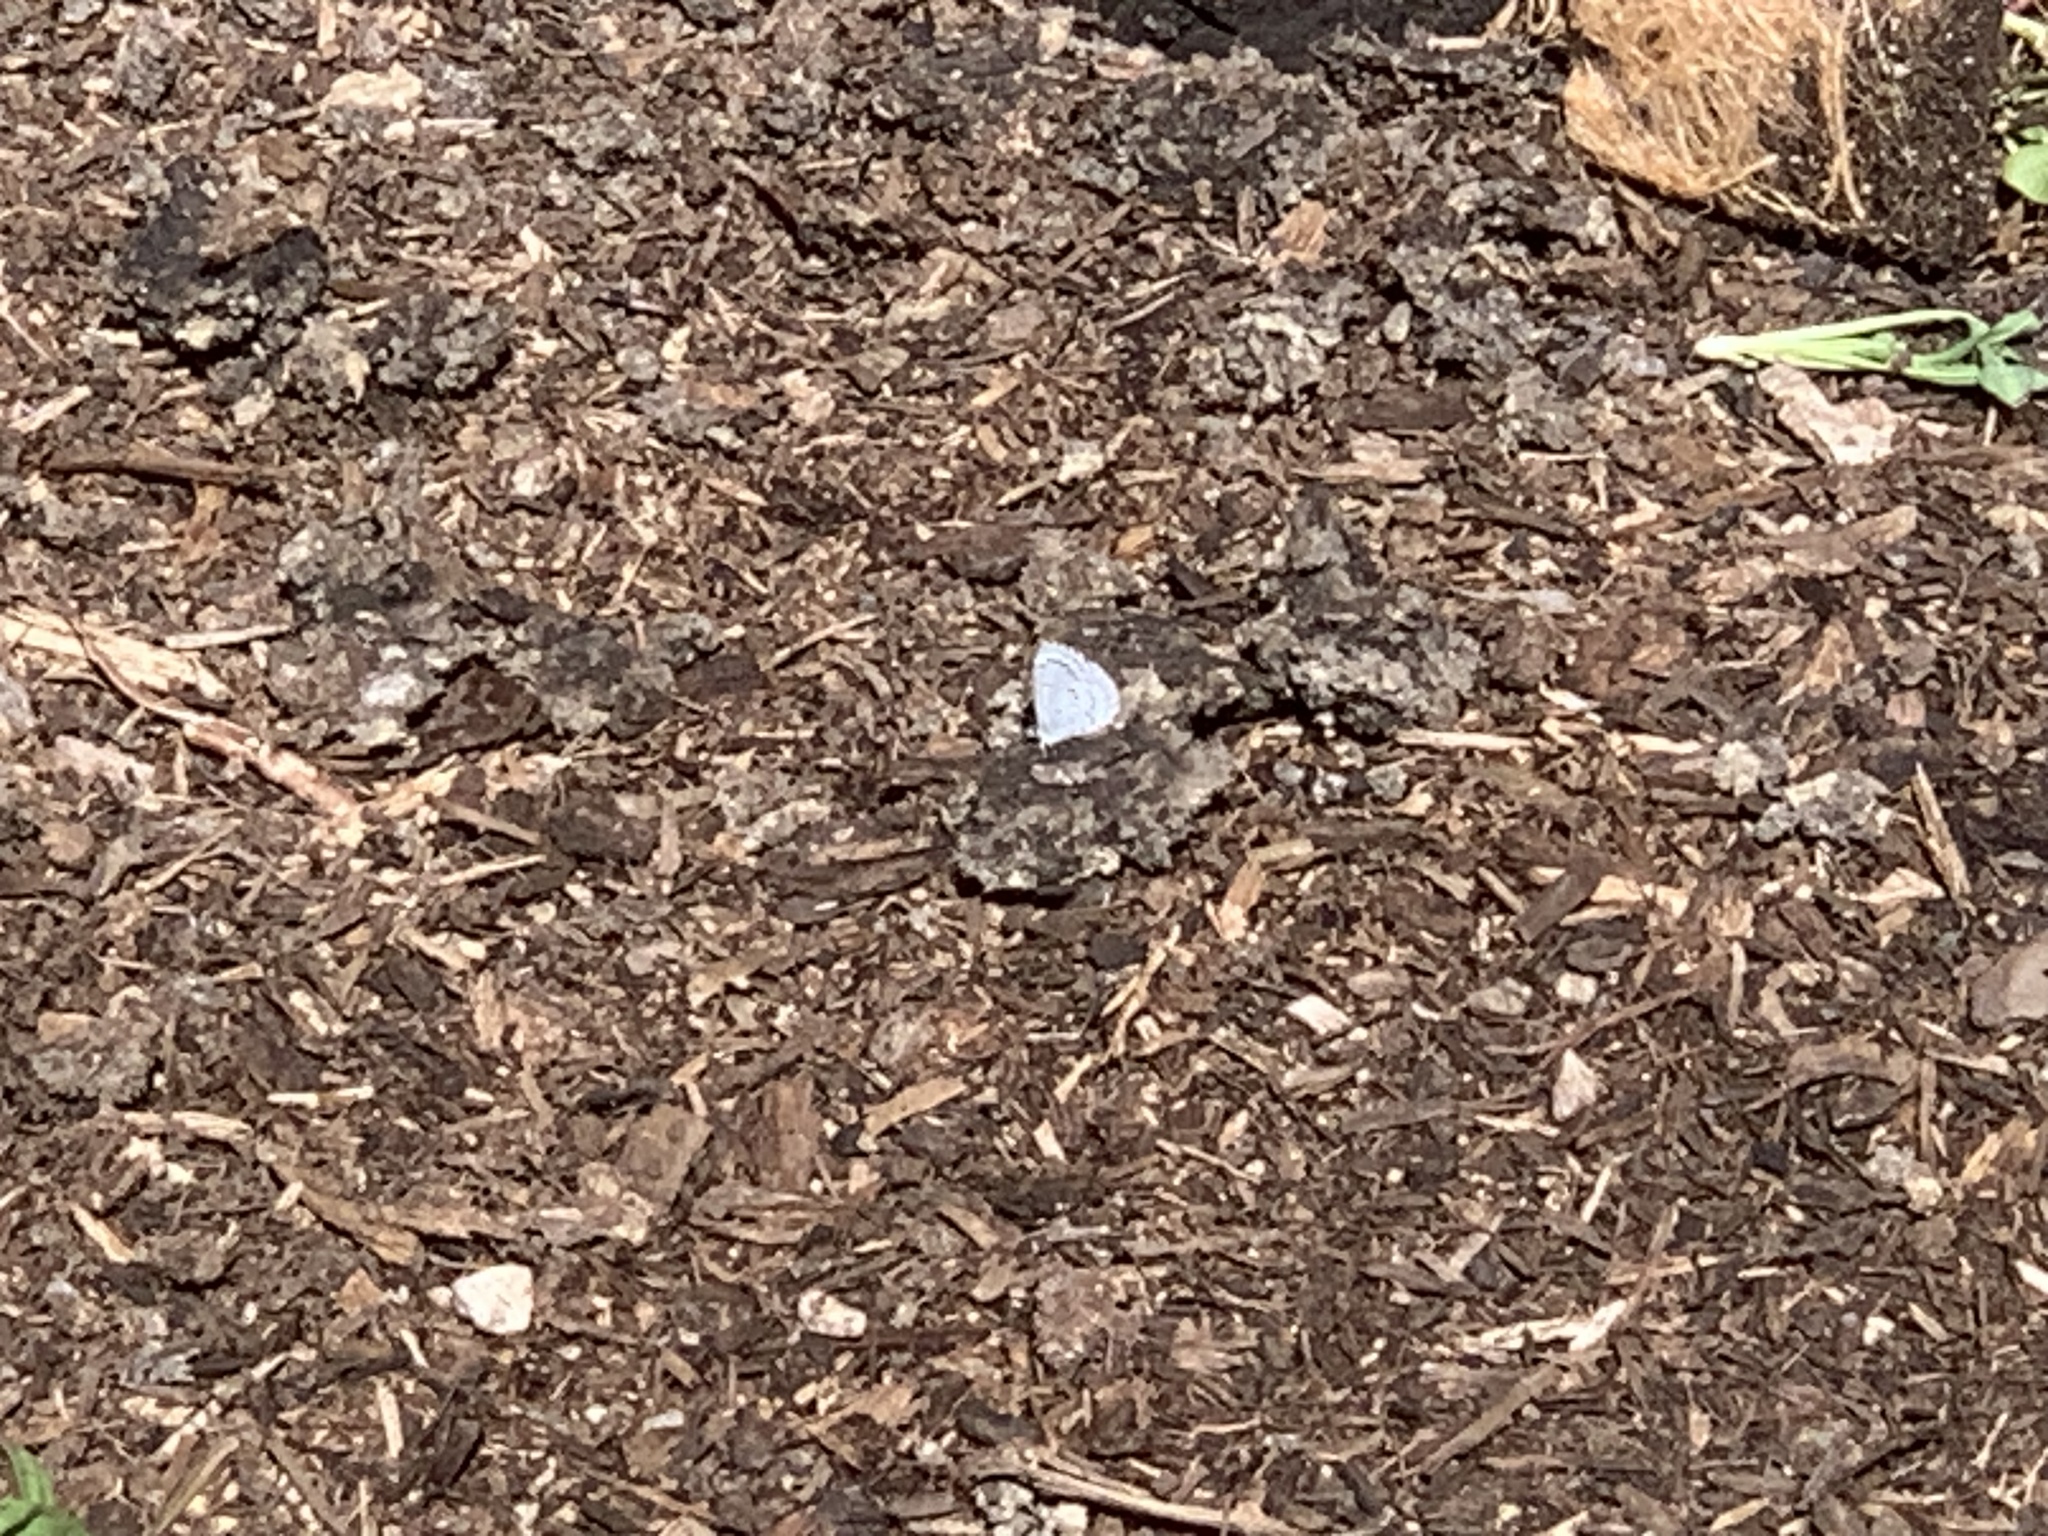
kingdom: Animalia
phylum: Arthropoda
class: Insecta
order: Lepidoptera
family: Lycaenidae
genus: Celastrina
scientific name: Celastrina ladon
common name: Spring azure
